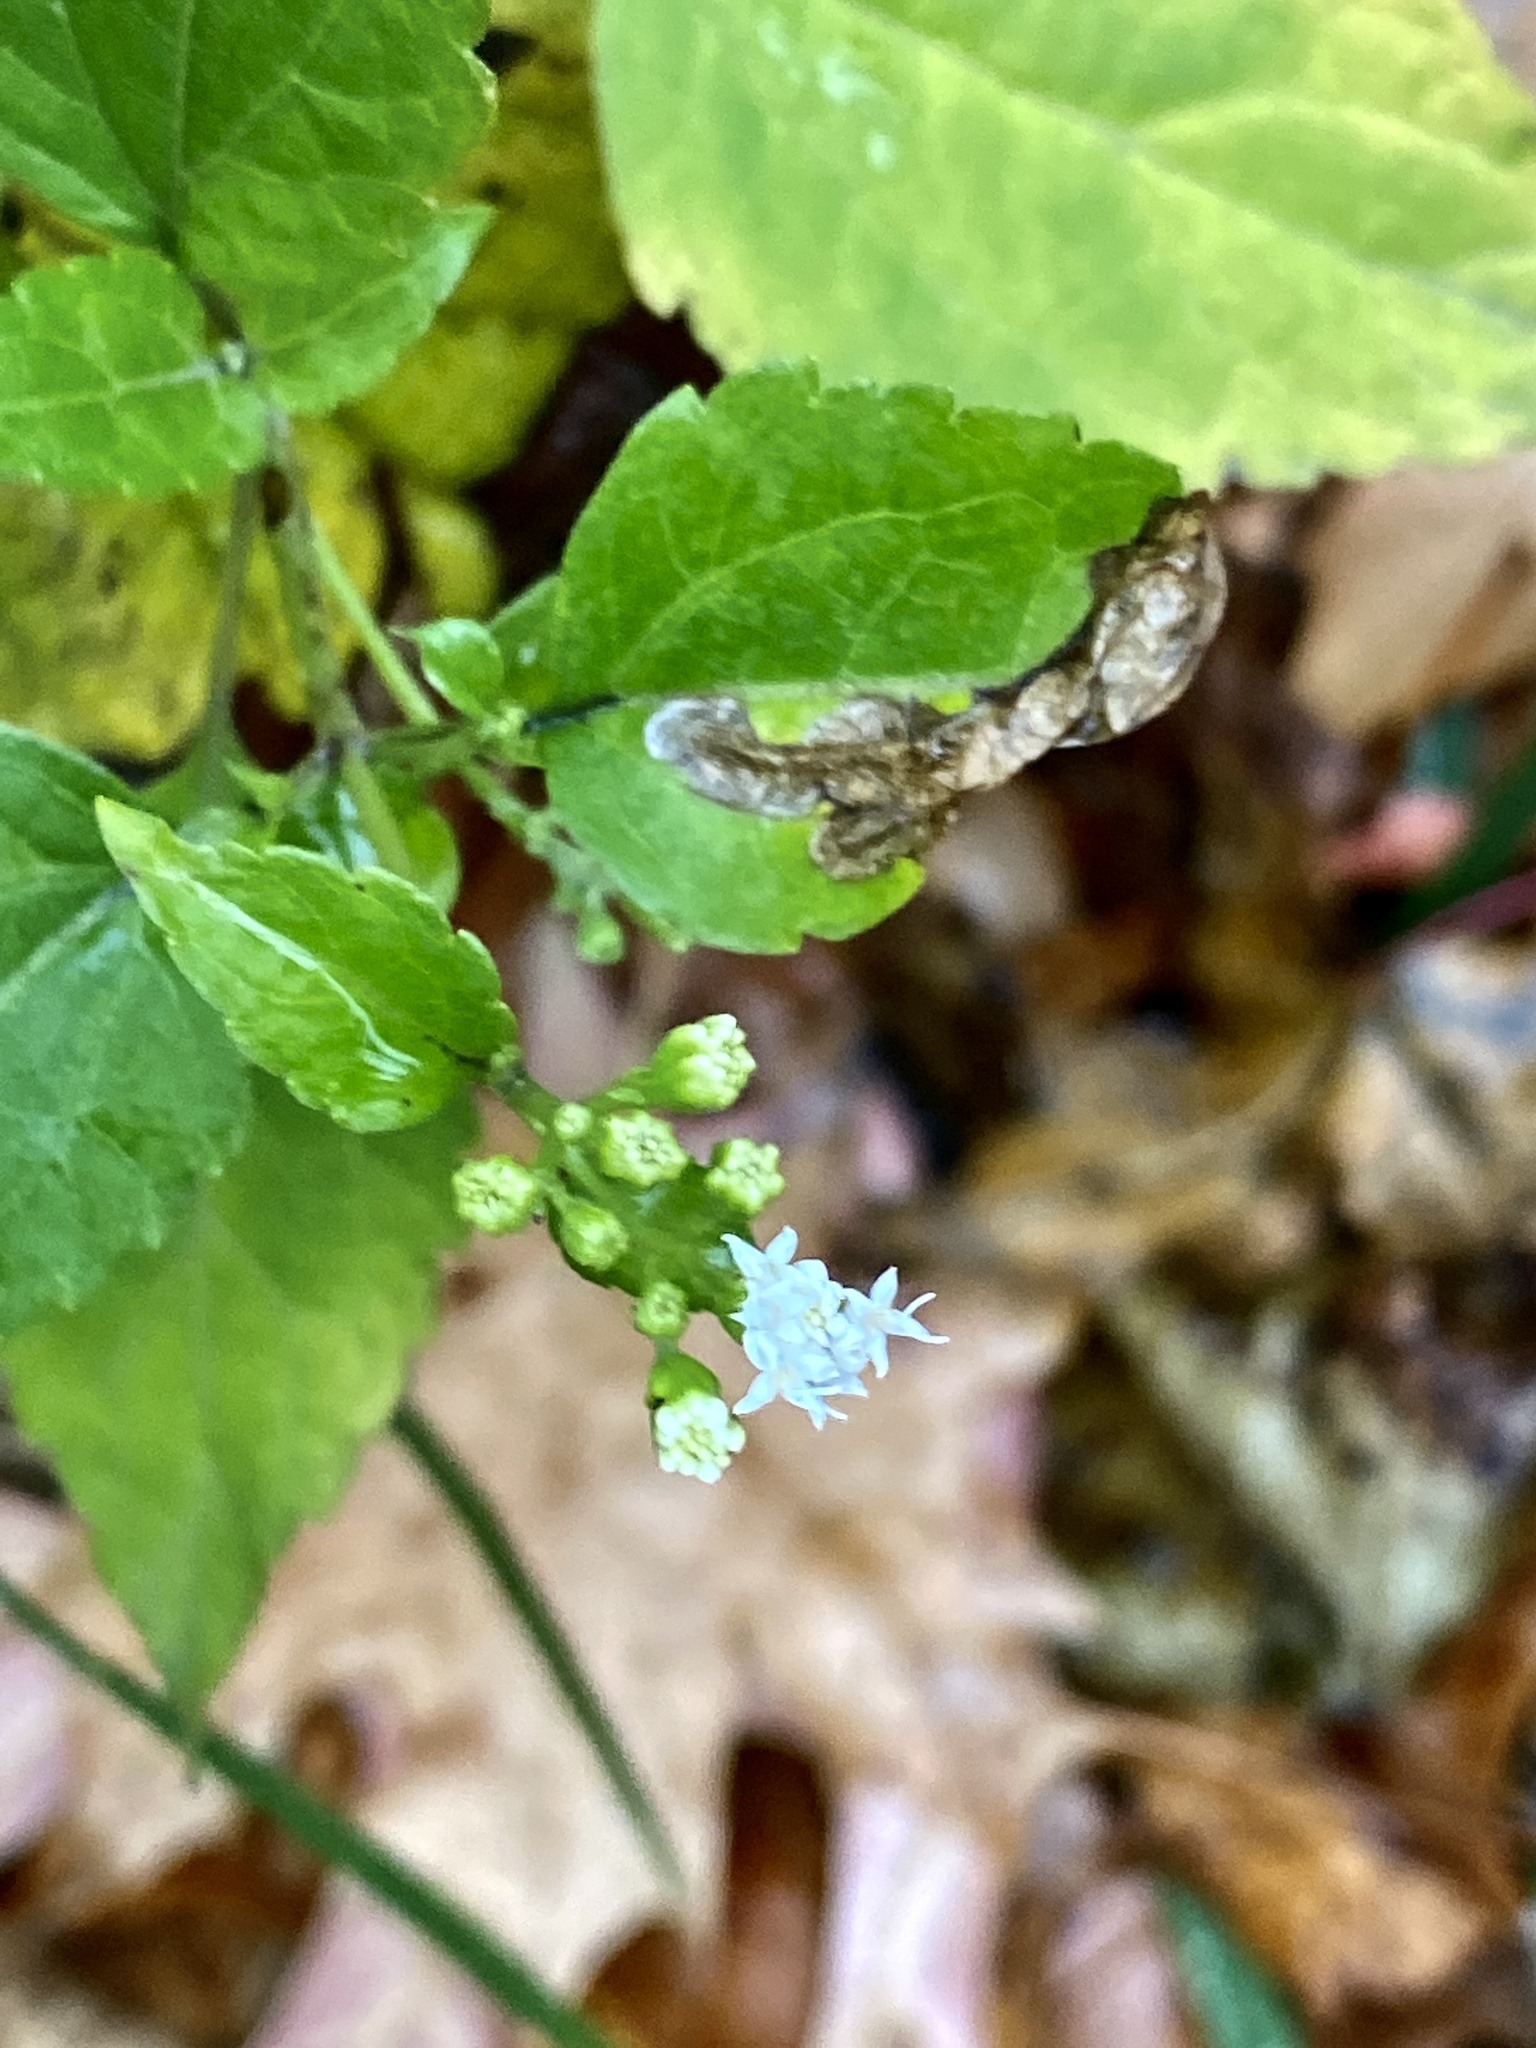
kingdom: Plantae
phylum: Tracheophyta
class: Magnoliopsida
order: Asterales
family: Asteraceae
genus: Ageratina
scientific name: Ageratina altissima
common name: White snakeroot
